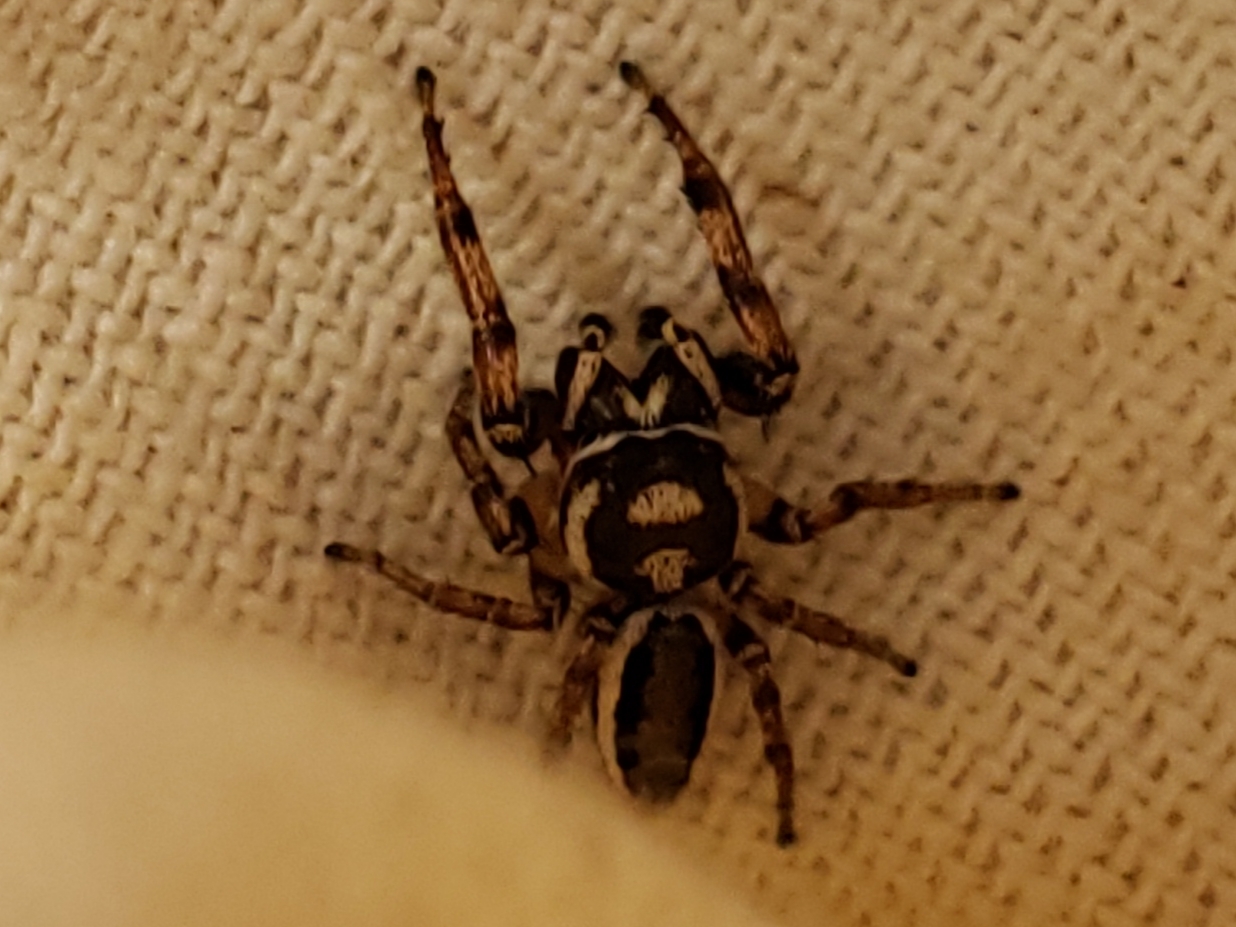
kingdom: Animalia
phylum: Arthropoda
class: Arachnida
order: Araneae
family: Salticidae
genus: Eris
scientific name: Eris flava
